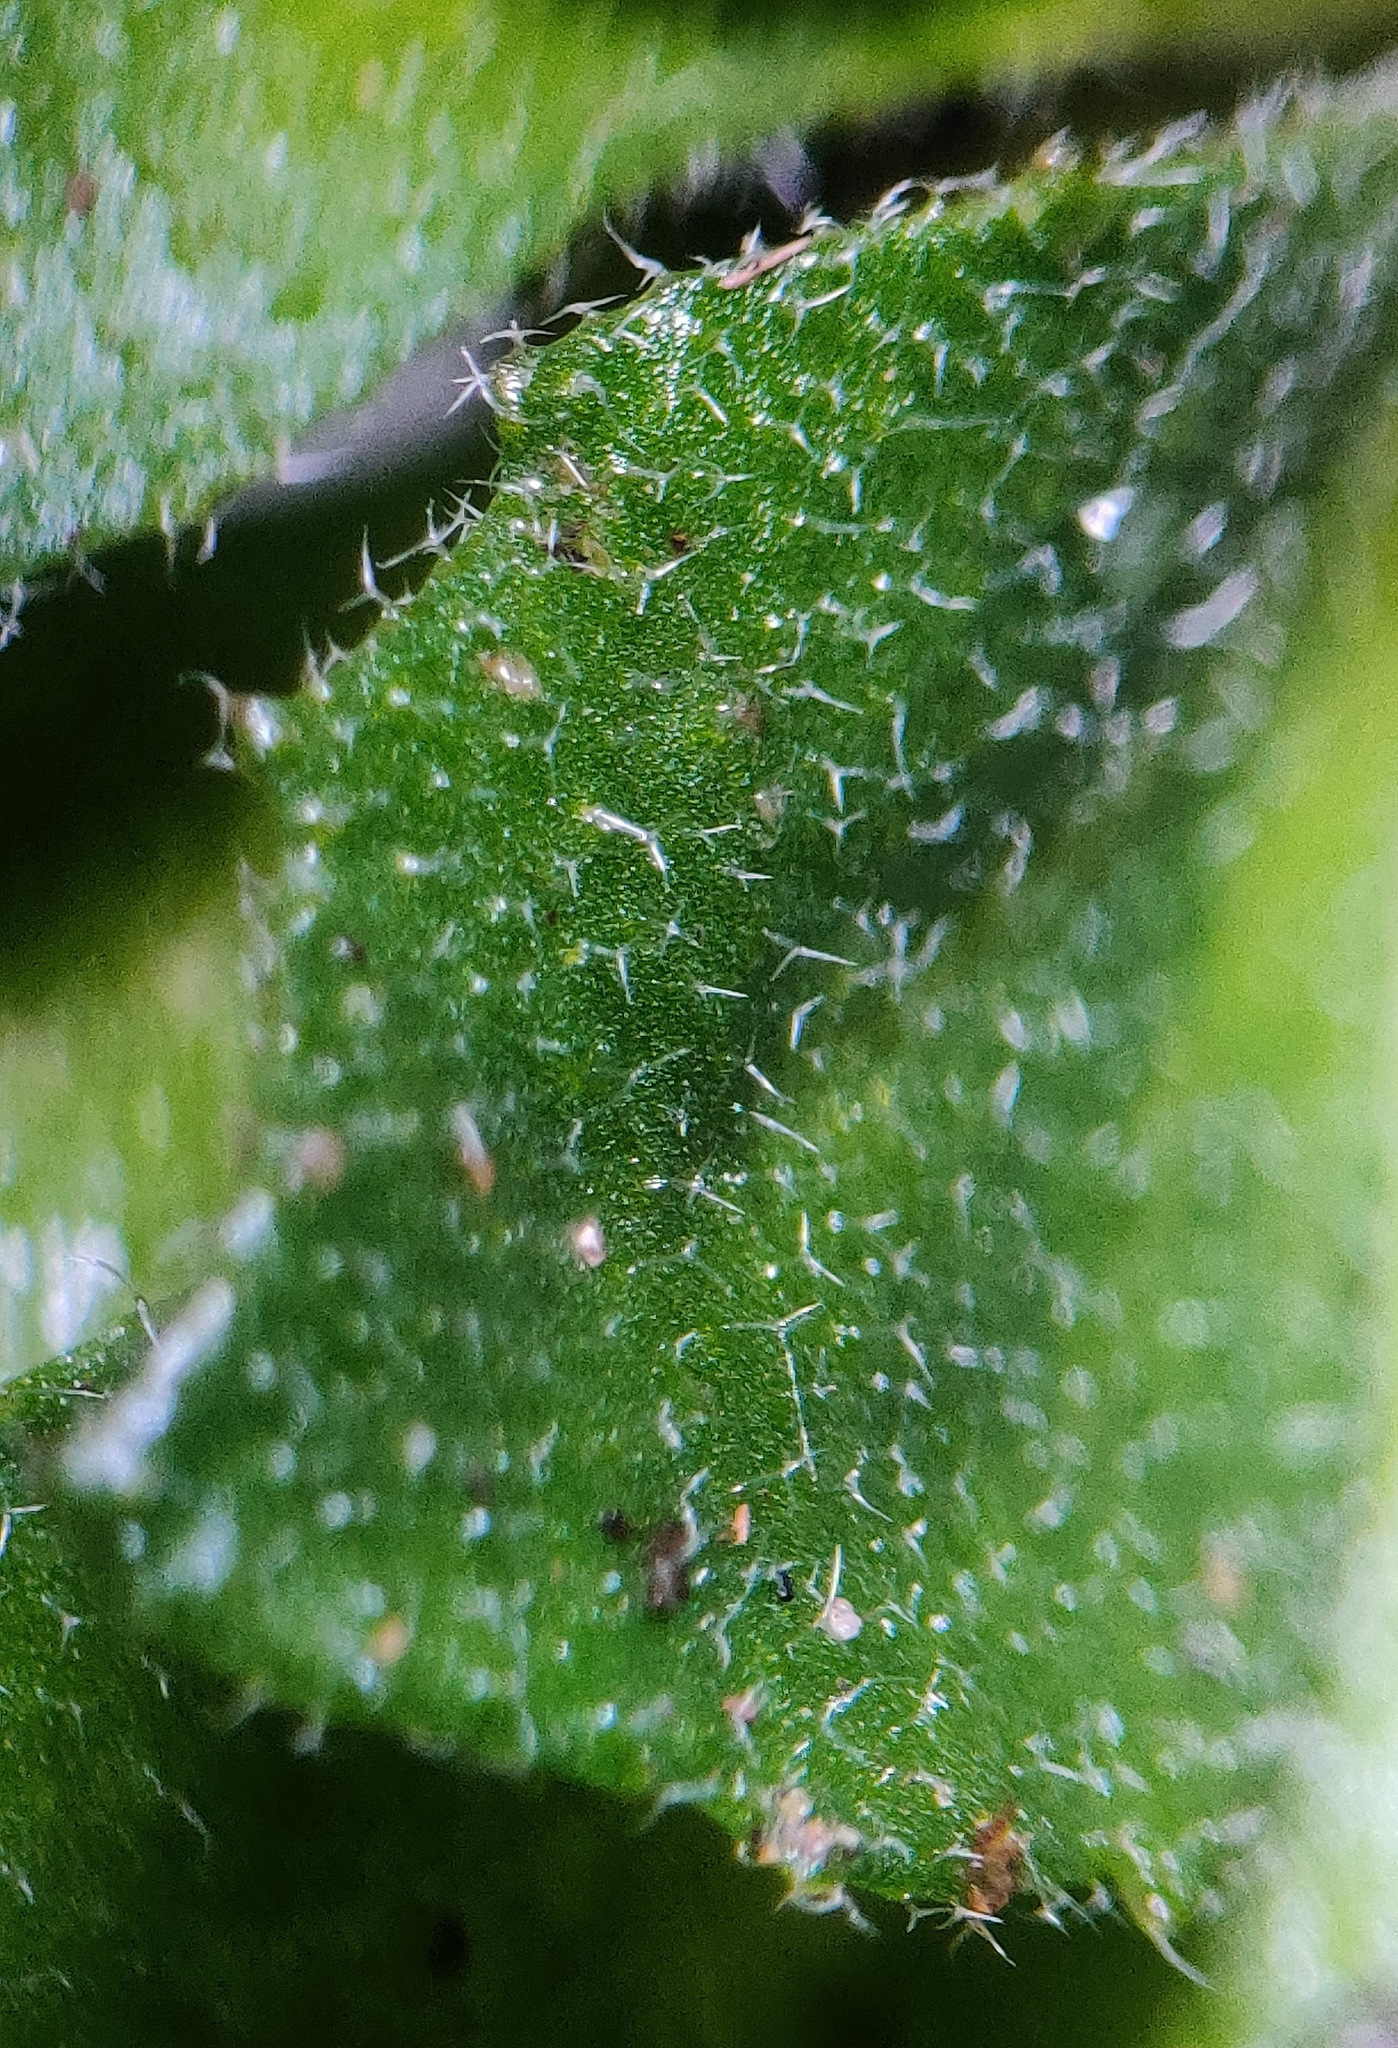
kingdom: Plantae
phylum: Tracheophyta
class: Magnoliopsida
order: Brassicales
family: Brassicaceae
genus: Draba
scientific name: Draba majuscula
